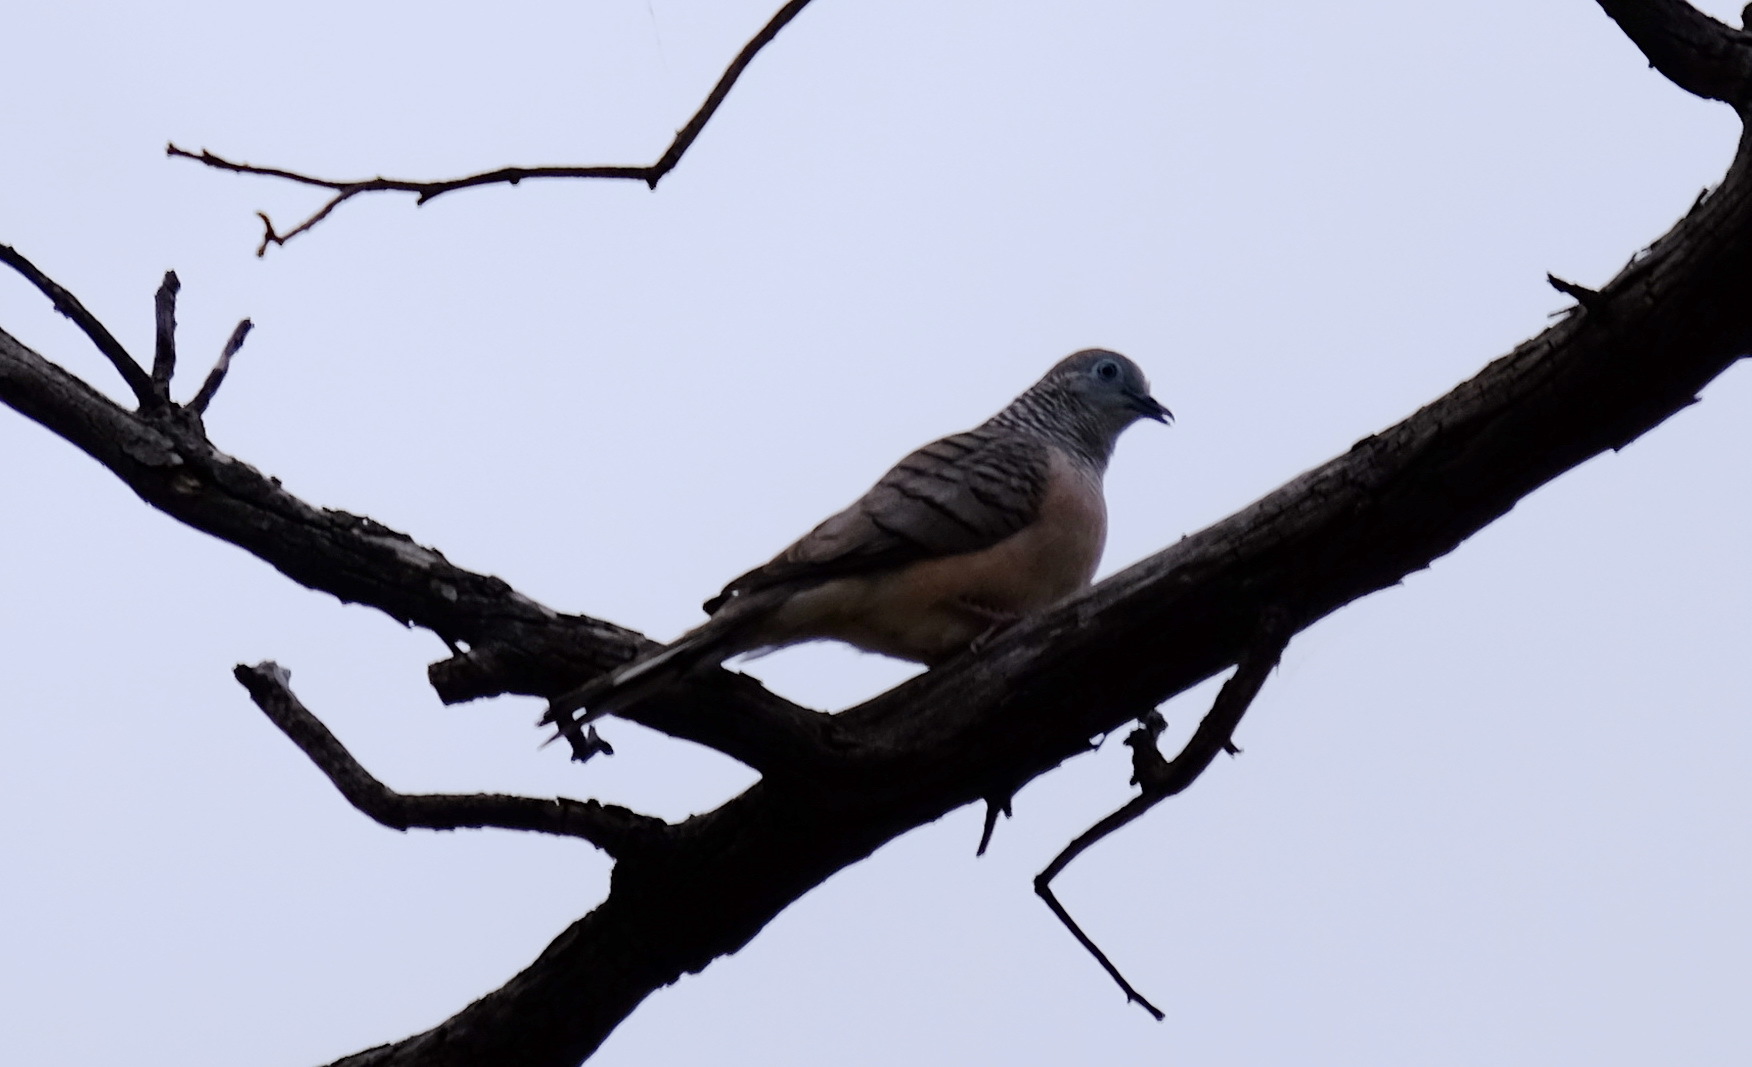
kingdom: Animalia
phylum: Chordata
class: Aves
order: Columbiformes
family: Columbidae
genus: Geopelia
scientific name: Geopelia placida
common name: Peaceful dove
